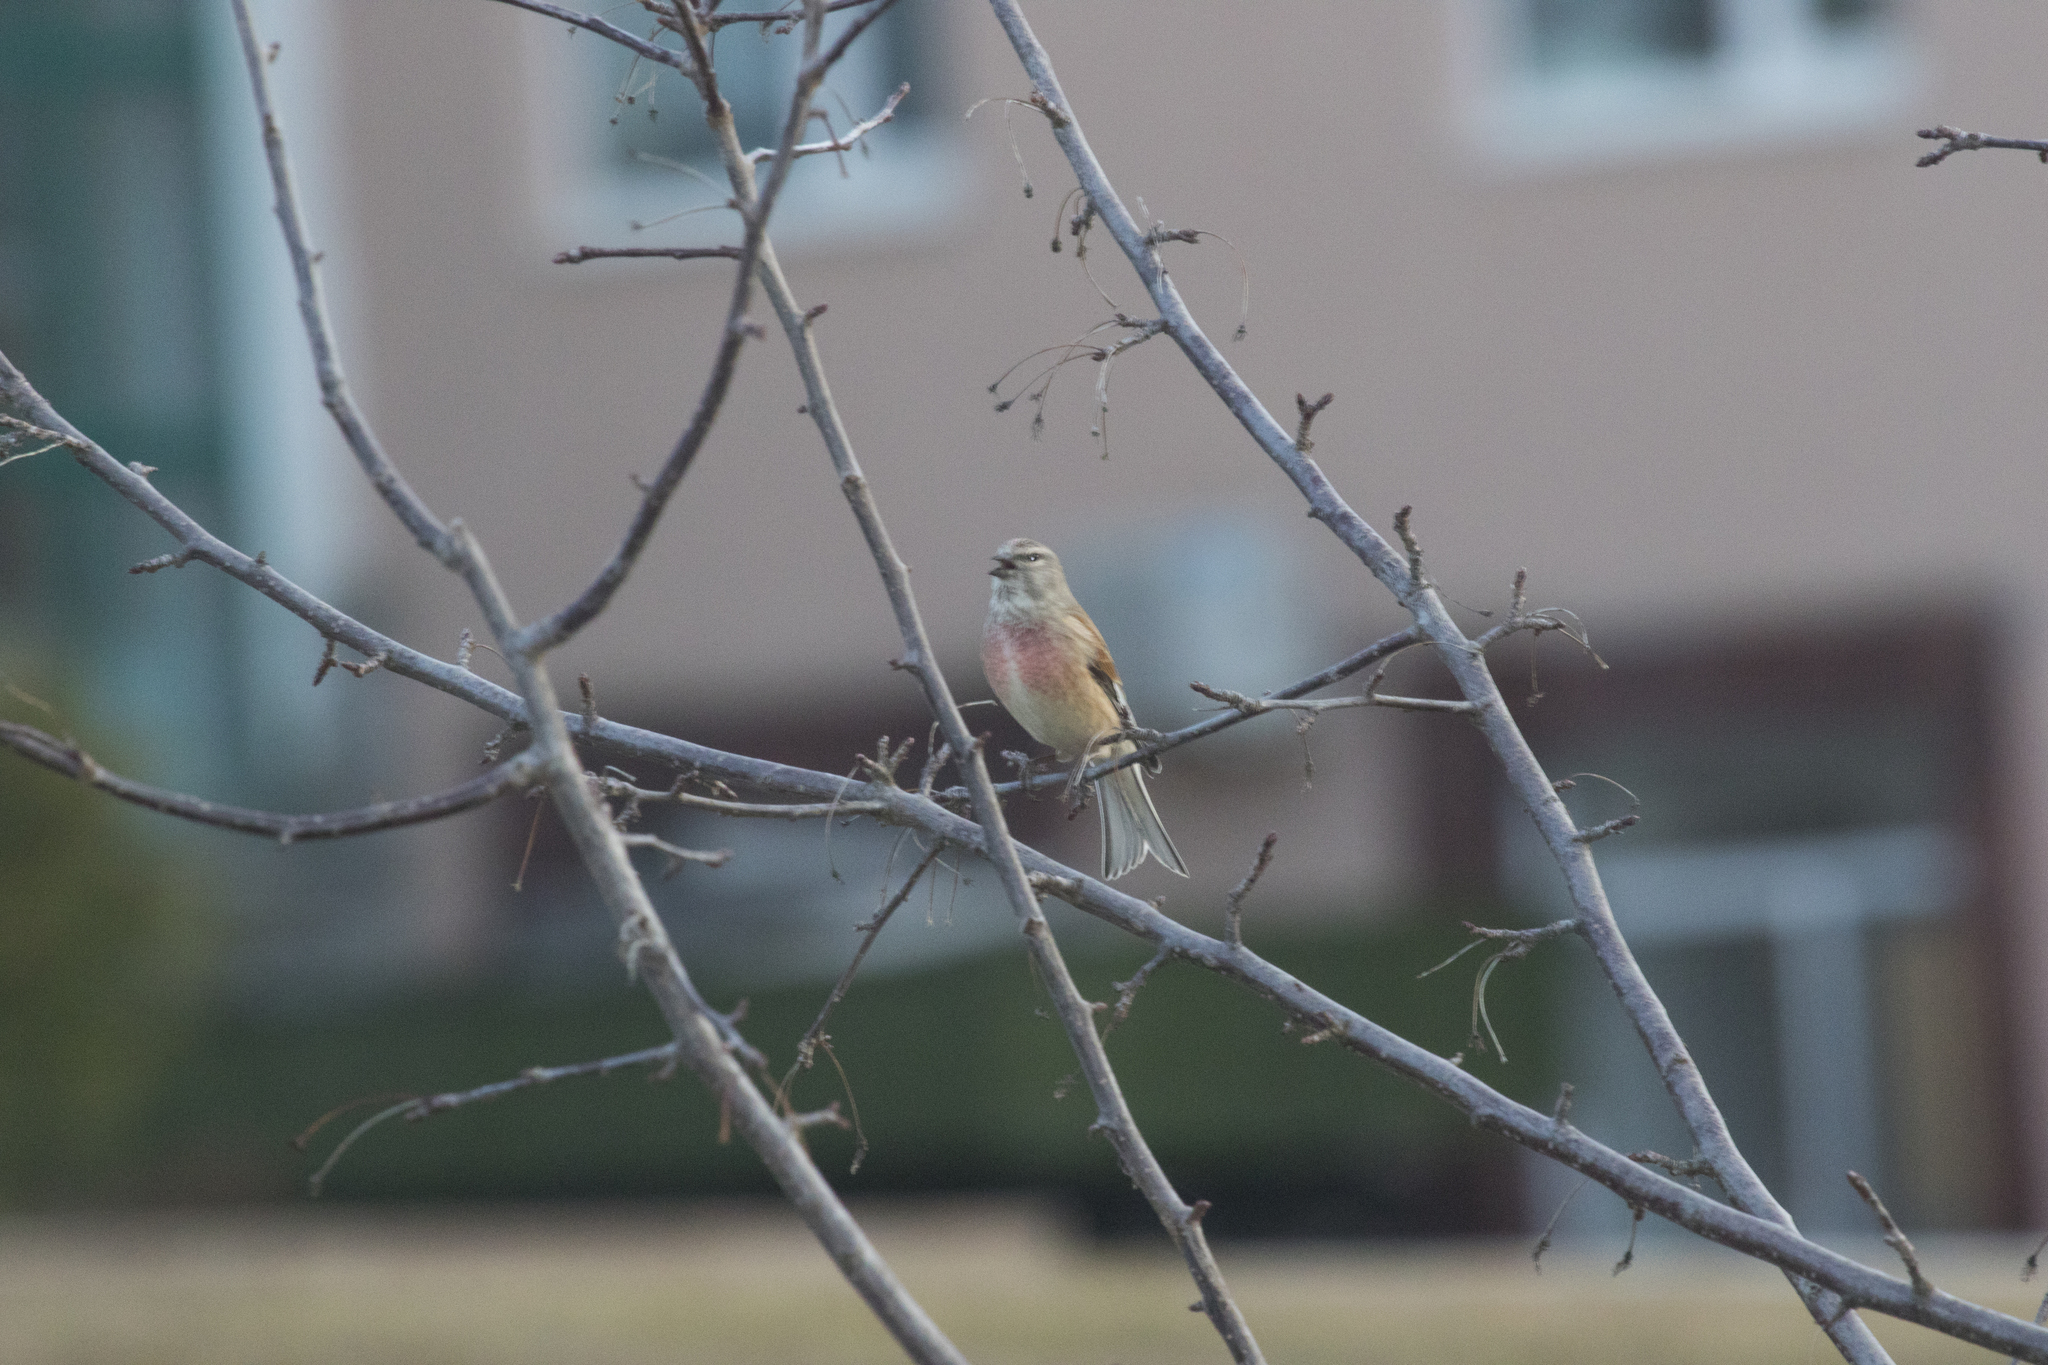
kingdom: Animalia
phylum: Chordata
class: Aves
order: Passeriformes
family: Fringillidae
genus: Linaria
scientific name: Linaria cannabina
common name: Common linnet
